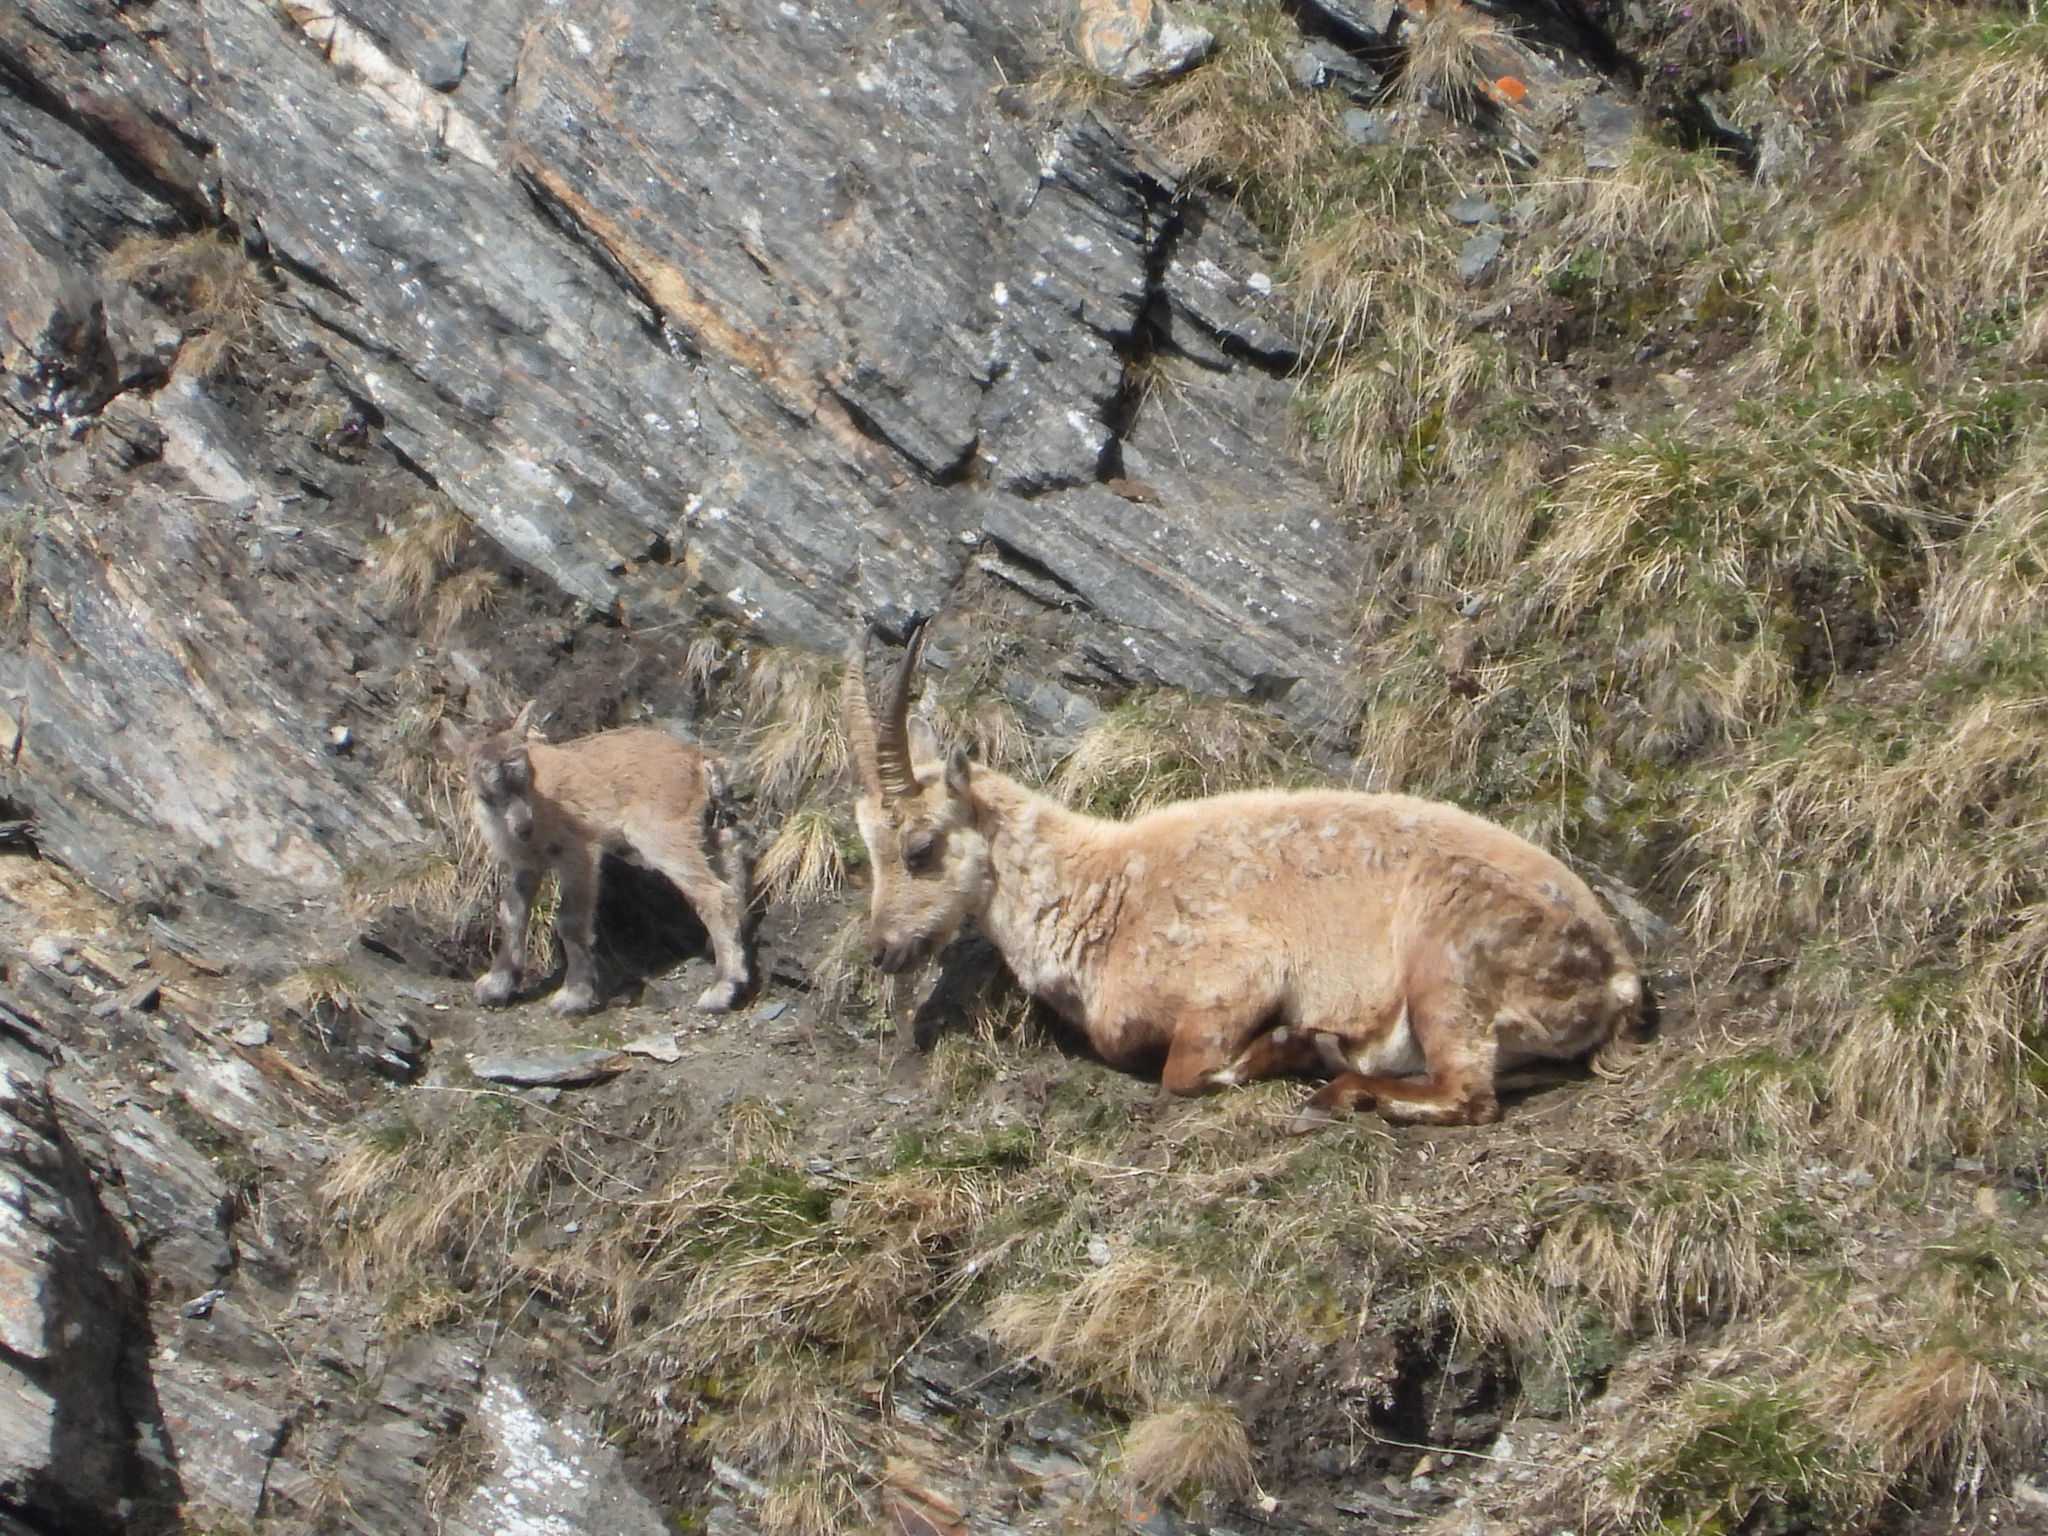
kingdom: Animalia
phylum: Chordata
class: Mammalia
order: Artiodactyla
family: Bovidae
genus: Capra
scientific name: Capra ibex
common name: Alpine ibex
